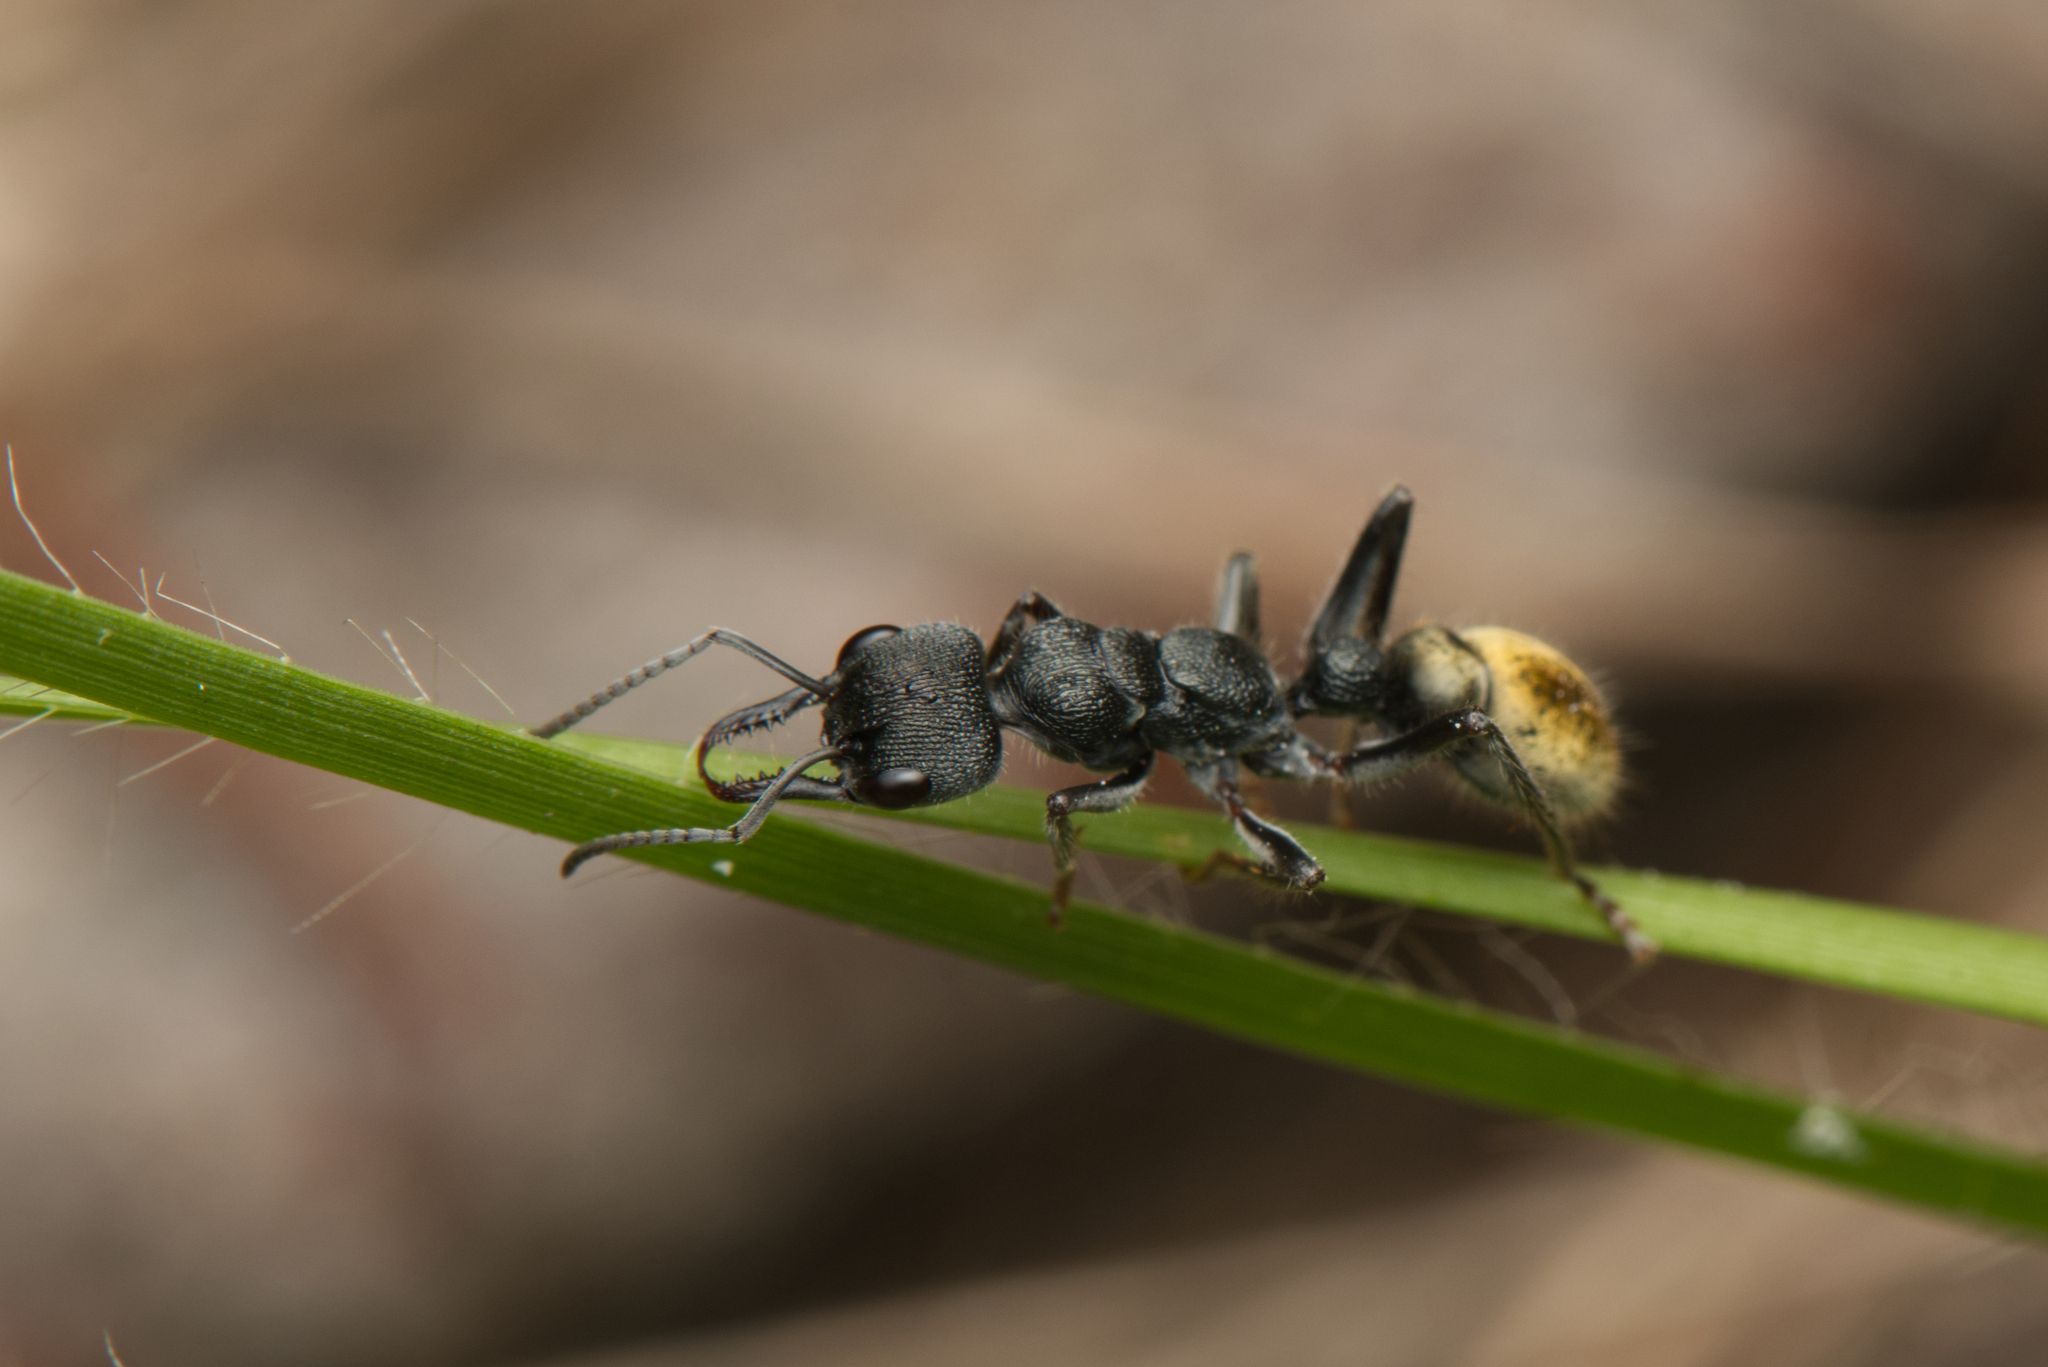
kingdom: Animalia
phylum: Arthropoda
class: Insecta
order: Hymenoptera
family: Formicidae
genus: Myrmecia
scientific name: Myrmecia queenslandica
